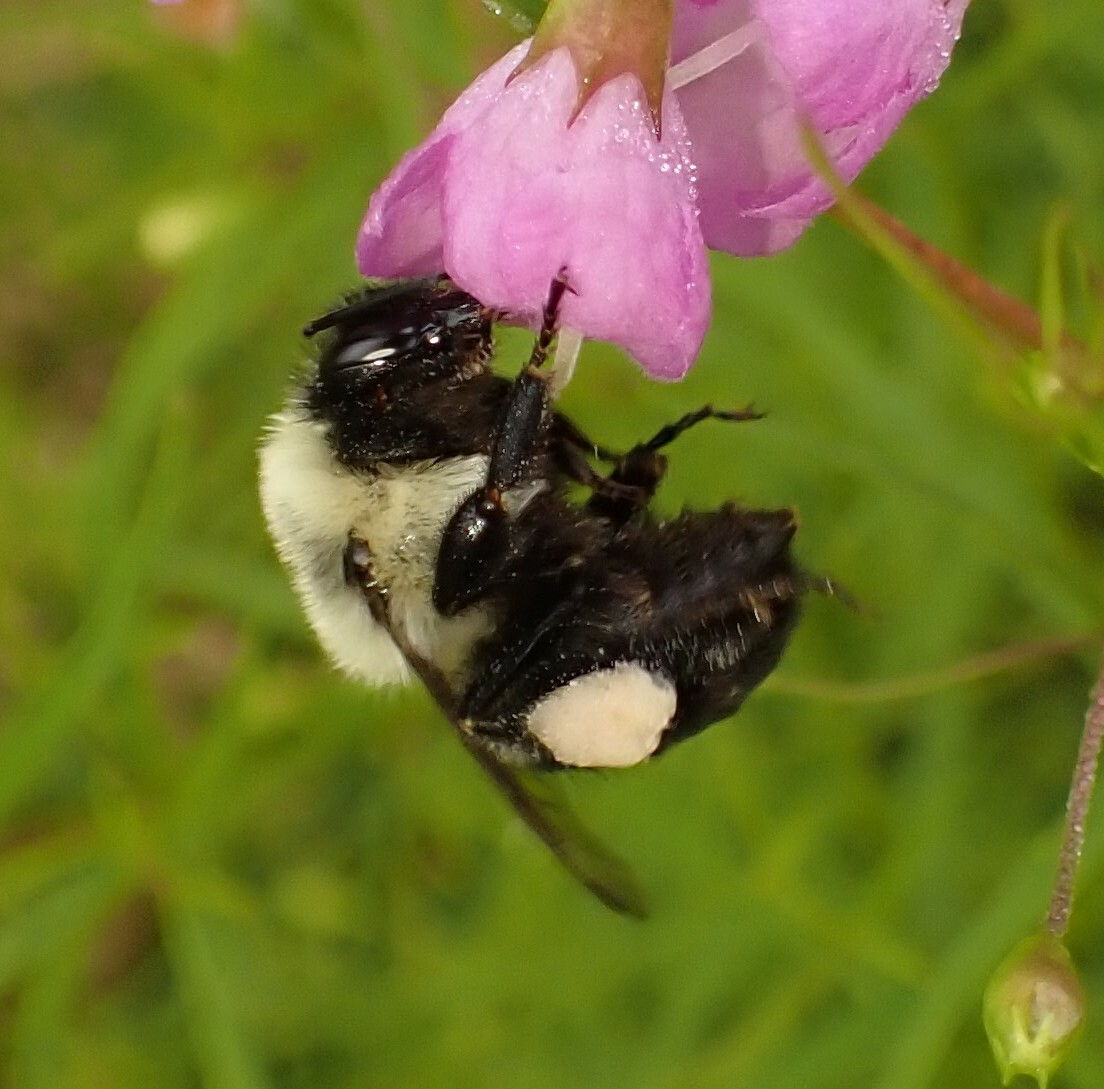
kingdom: Animalia
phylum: Arthropoda
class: Insecta
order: Hymenoptera
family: Apidae
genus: Bombus
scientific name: Bombus impatiens
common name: Common eastern bumble bee
